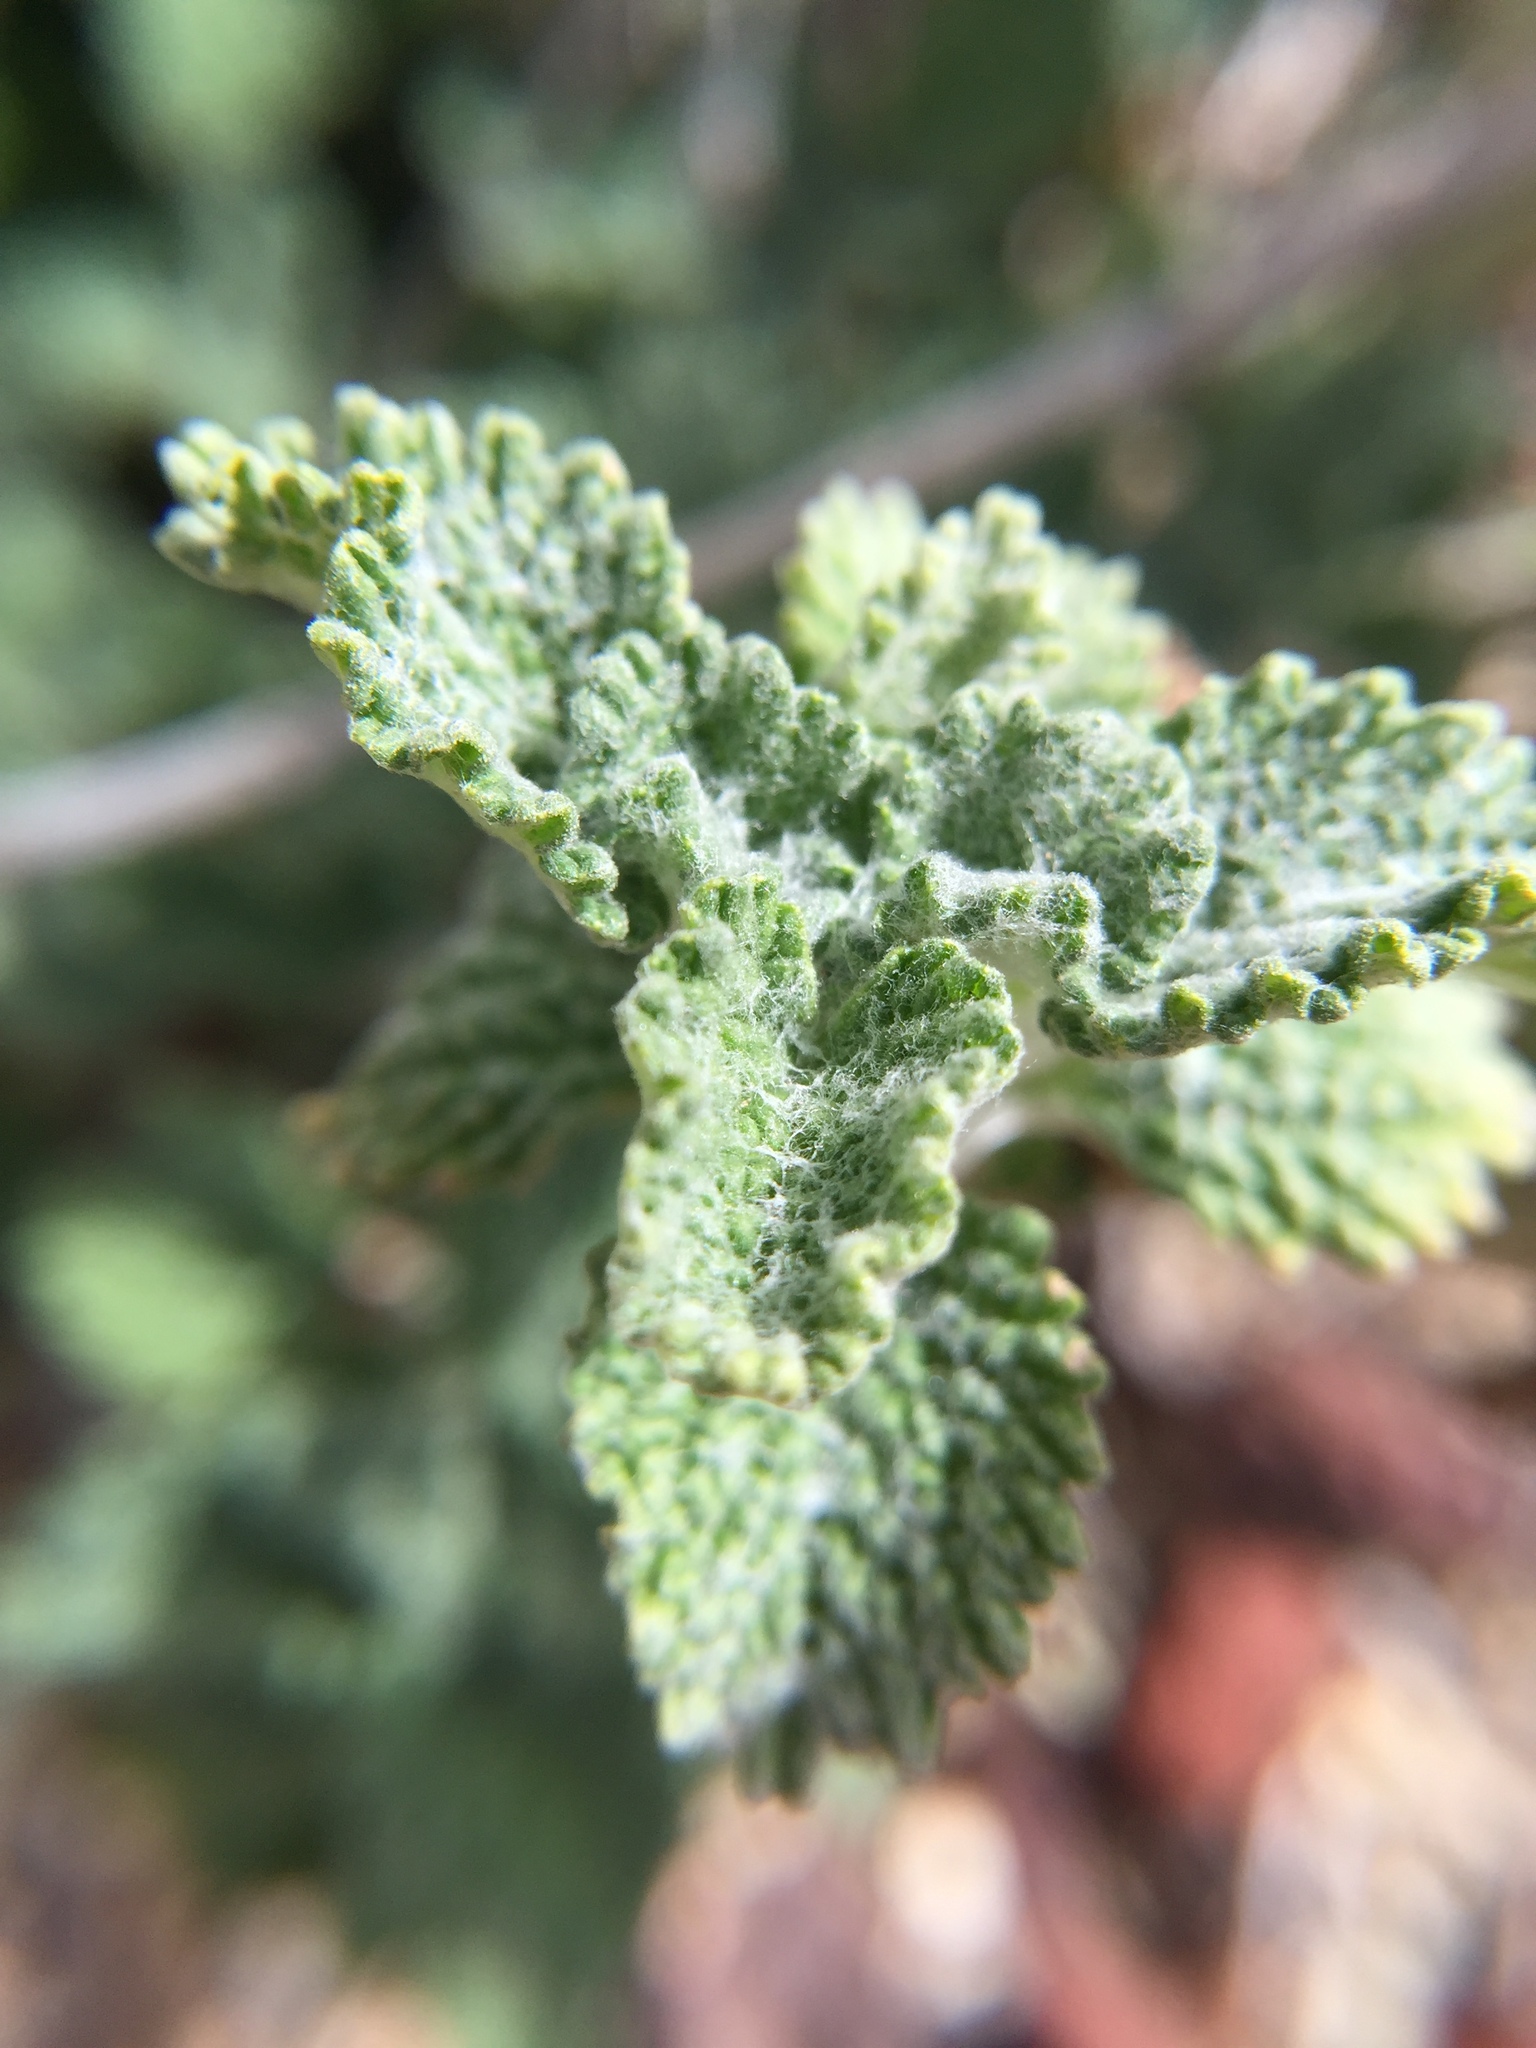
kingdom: Plantae
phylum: Tracheophyta
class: Magnoliopsida
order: Lamiales
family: Lamiaceae
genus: Marrubium
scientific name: Marrubium vulgare
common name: Horehound
